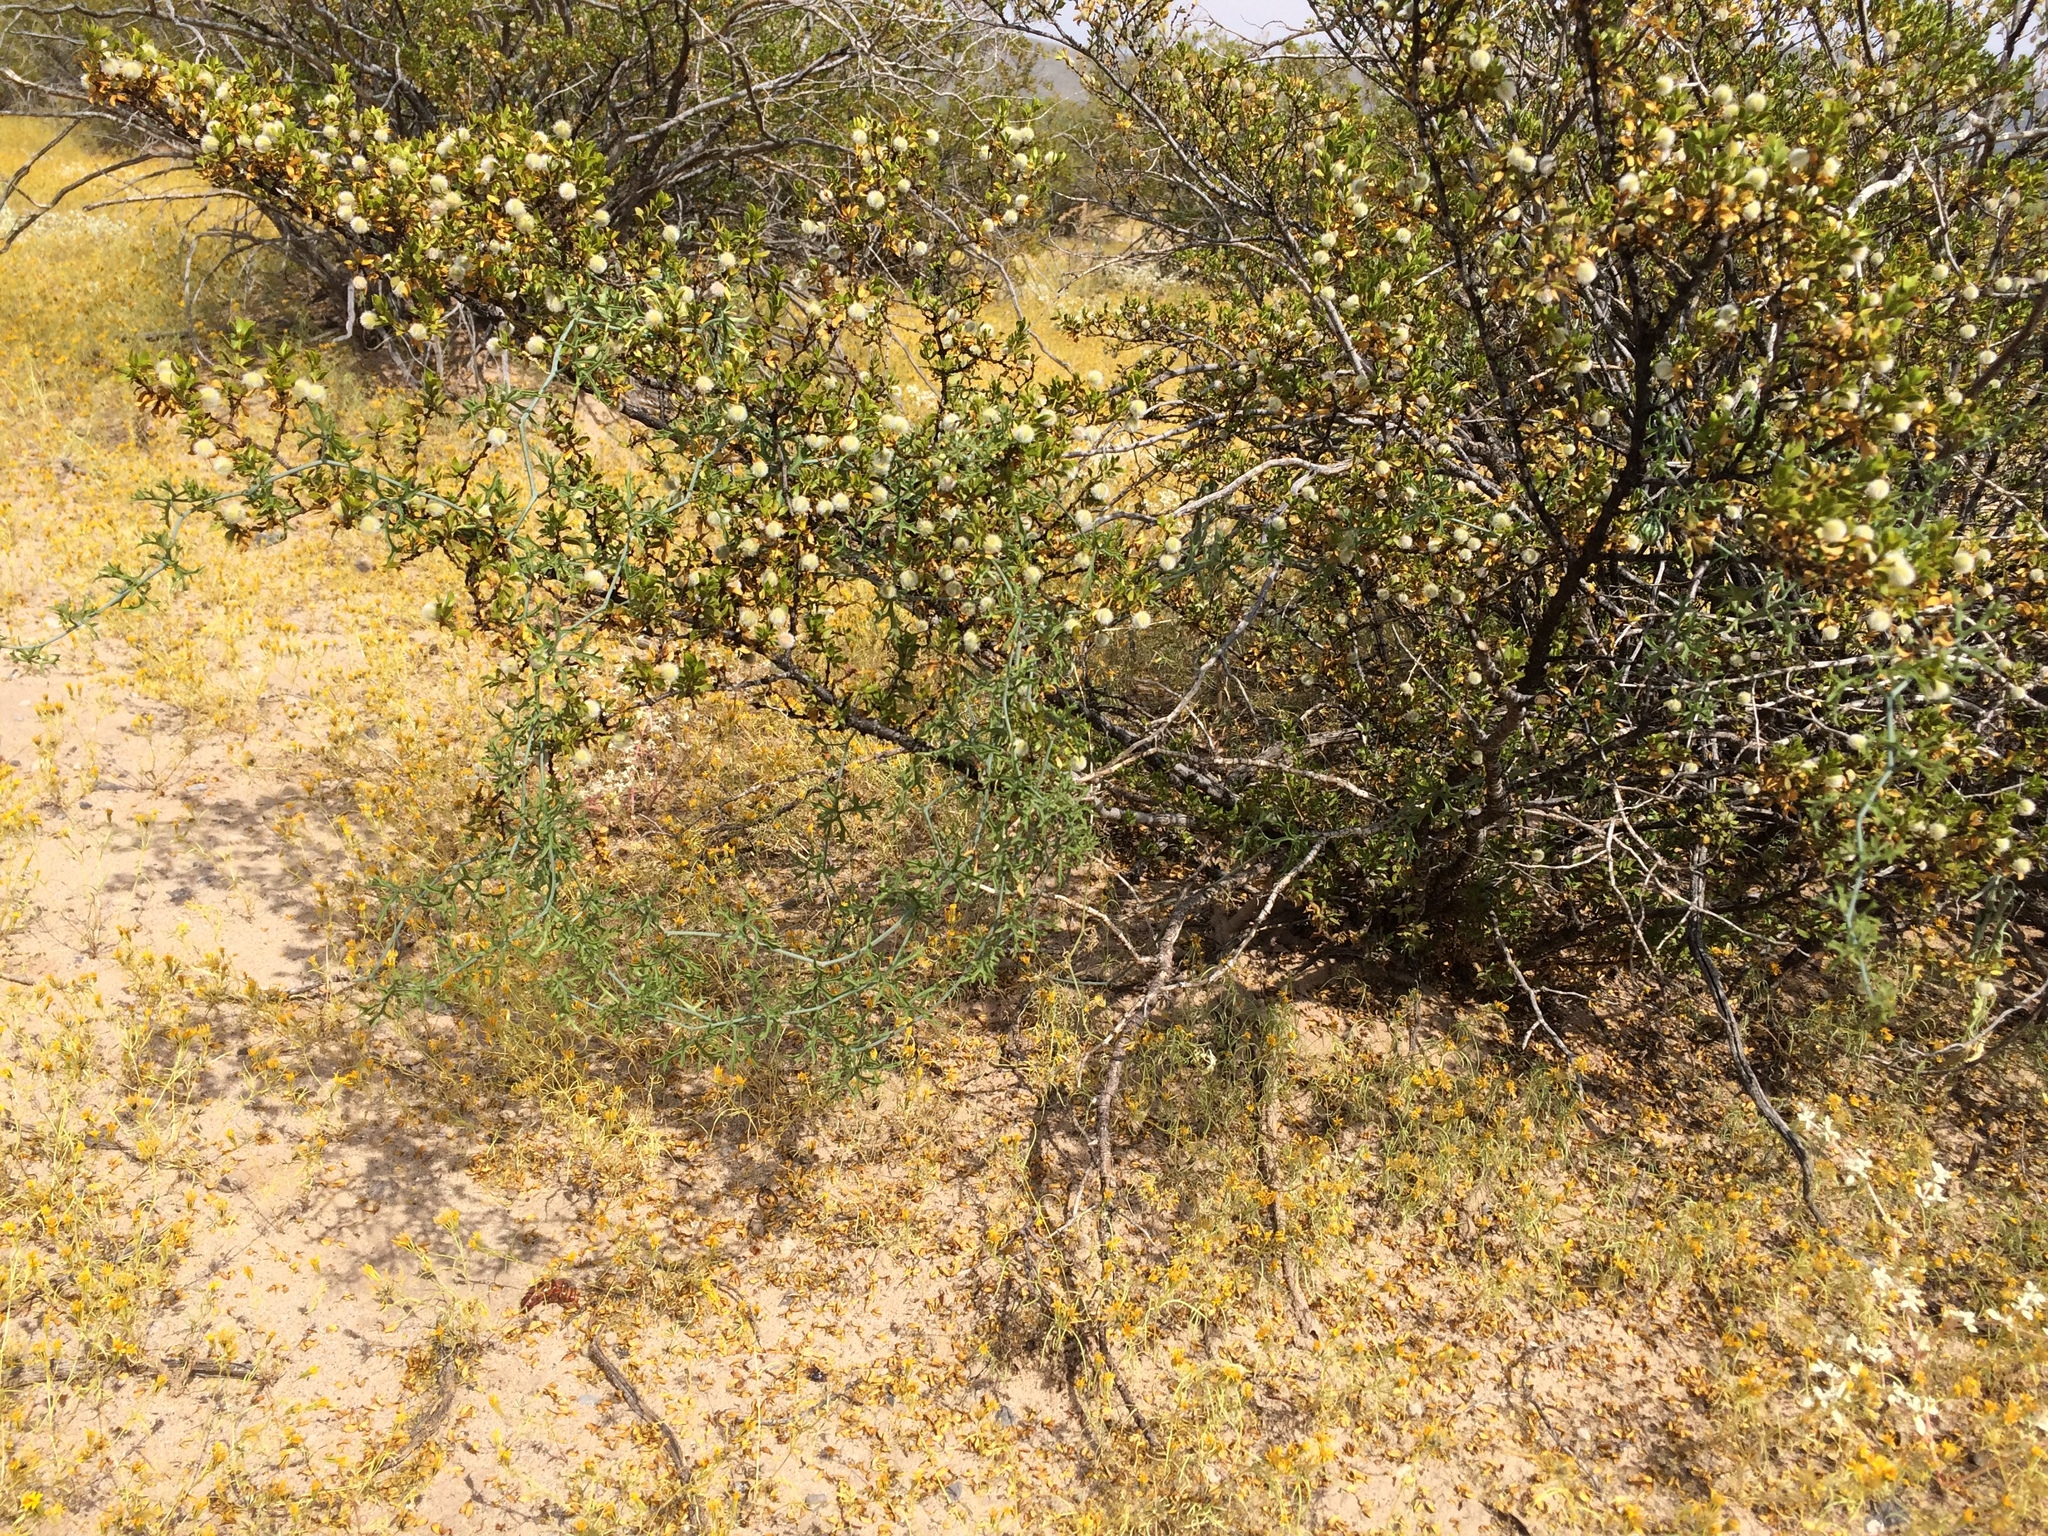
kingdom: Plantae
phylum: Tracheophyta
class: Magnoliopsida
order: Cucurbitales
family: Cucurbitaceae
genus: Ibervillea
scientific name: Ibervillea tenuisecta
